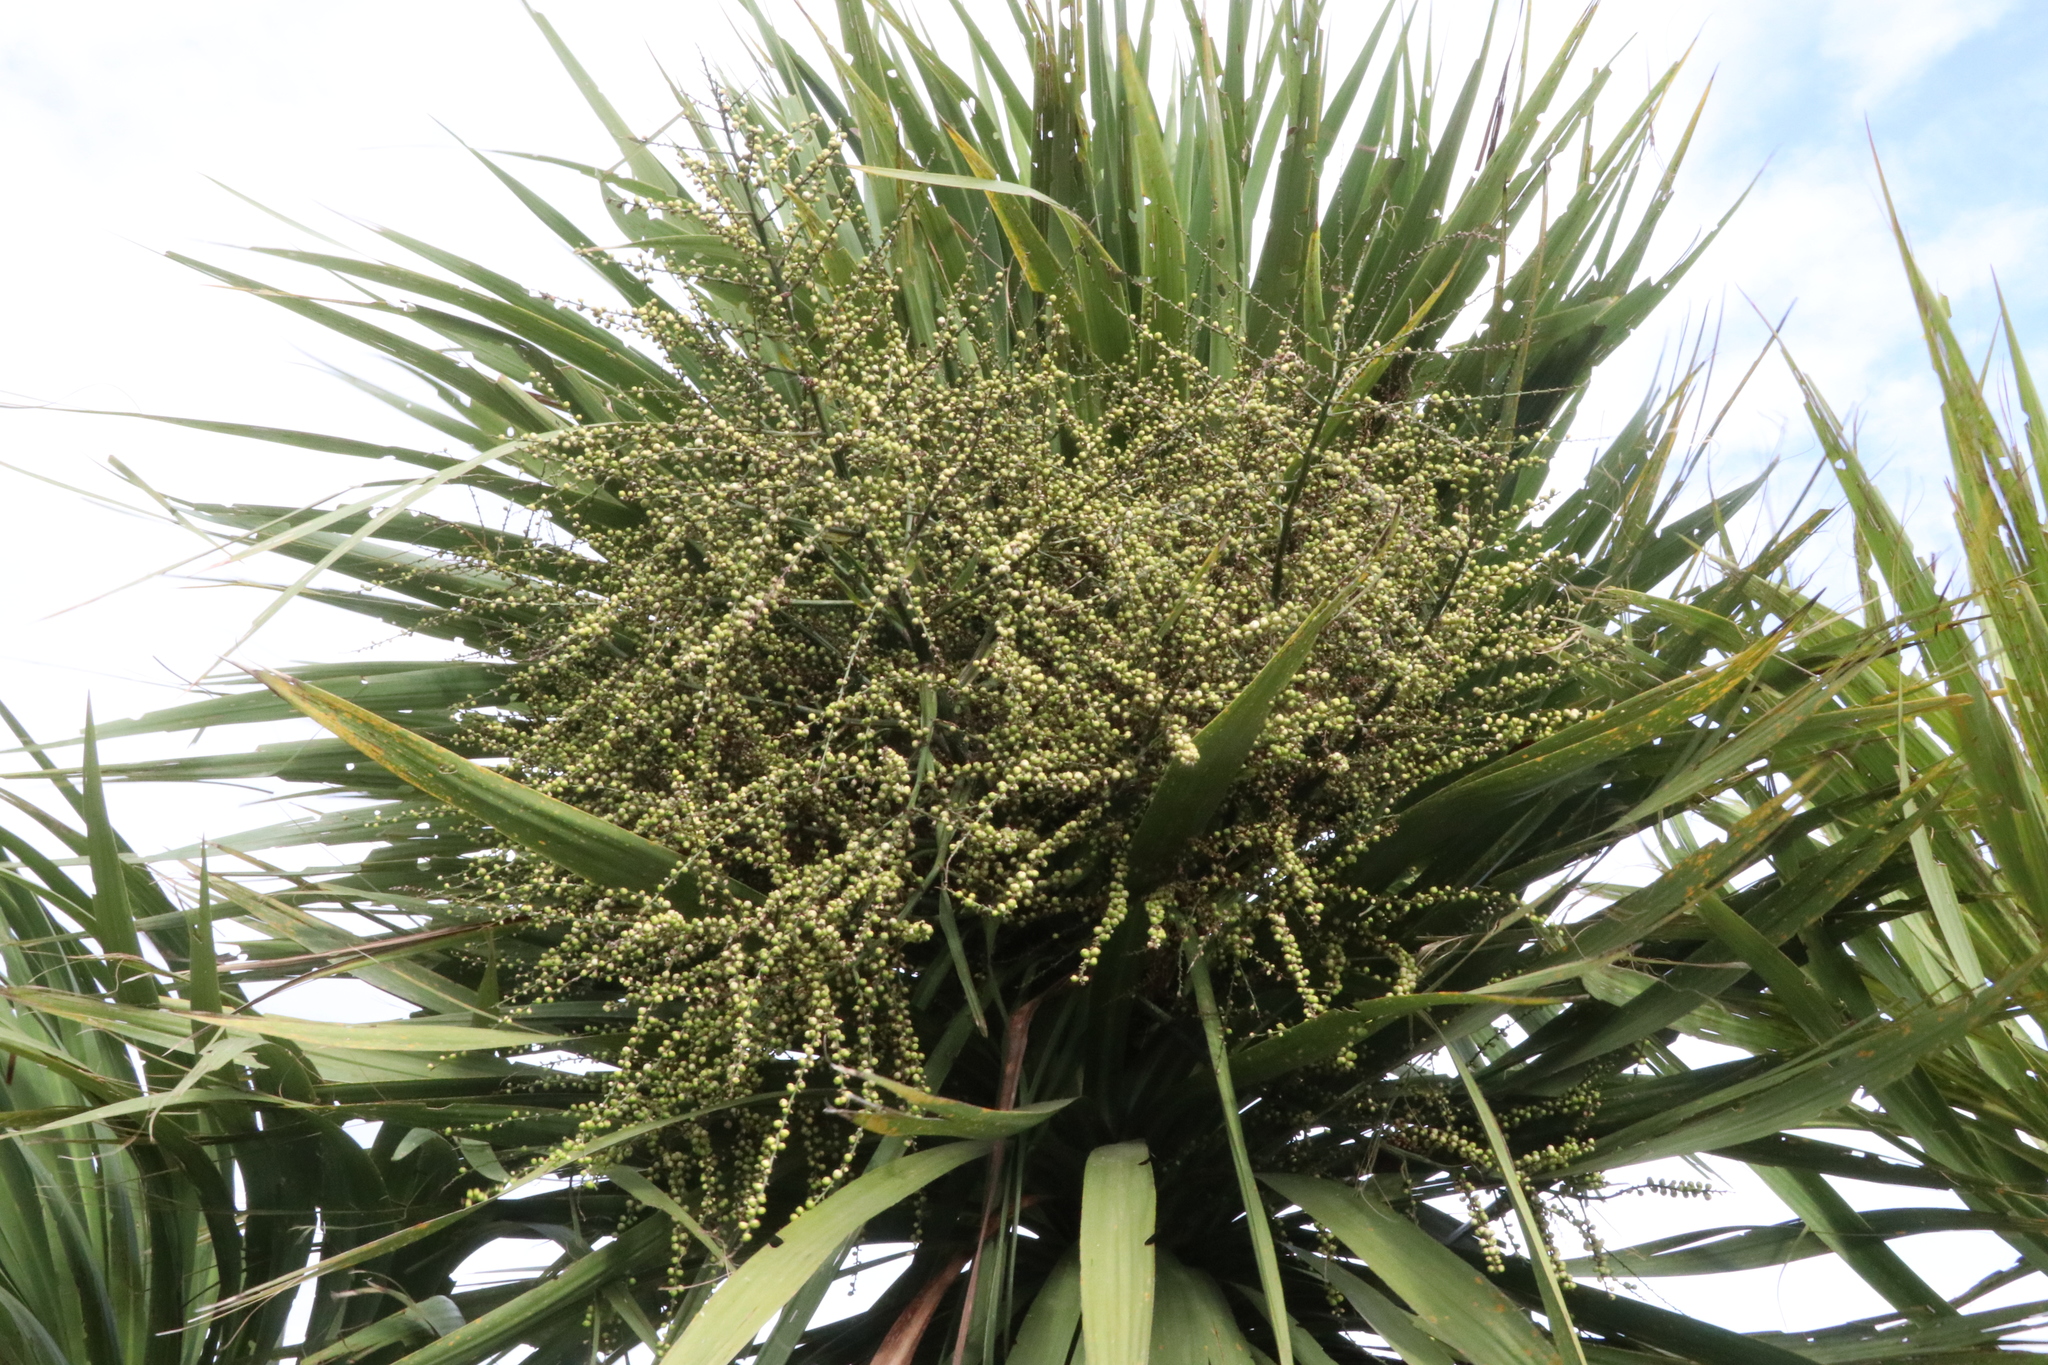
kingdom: Plantae
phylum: Tracheophyta
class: Liliopsida
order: Asparagales
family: Asparagaceae
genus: Cordyline
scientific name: Cordyline australis
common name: Cabbage-palm
